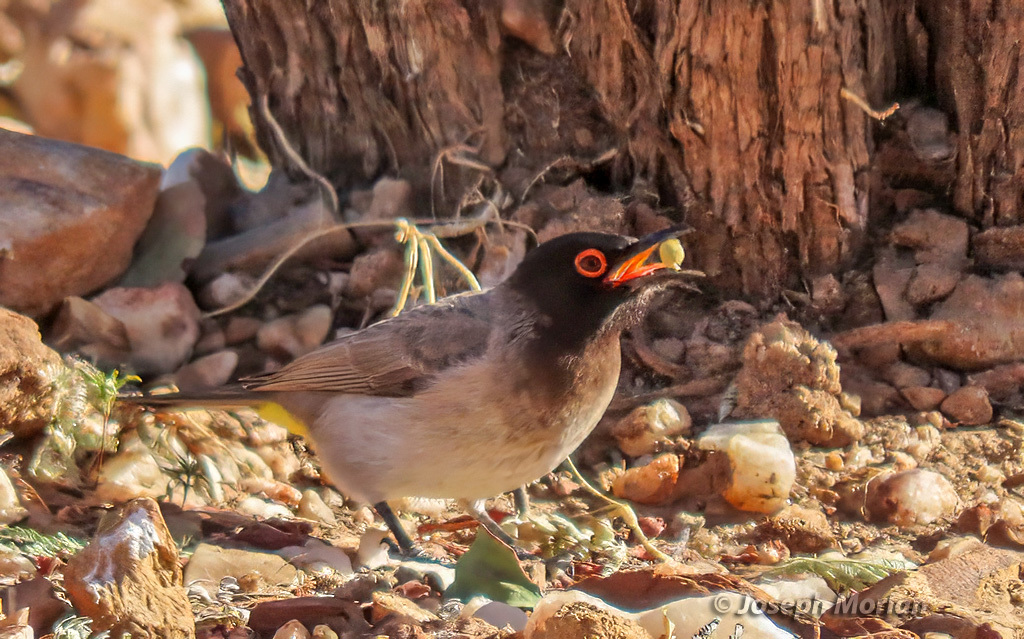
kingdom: Animalia
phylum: Chordata
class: Aves
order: Passeriformes
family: Pycnonotidae
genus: Pycnonotus
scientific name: Pycnonotus nigricans
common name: African red-eyed bulbul
